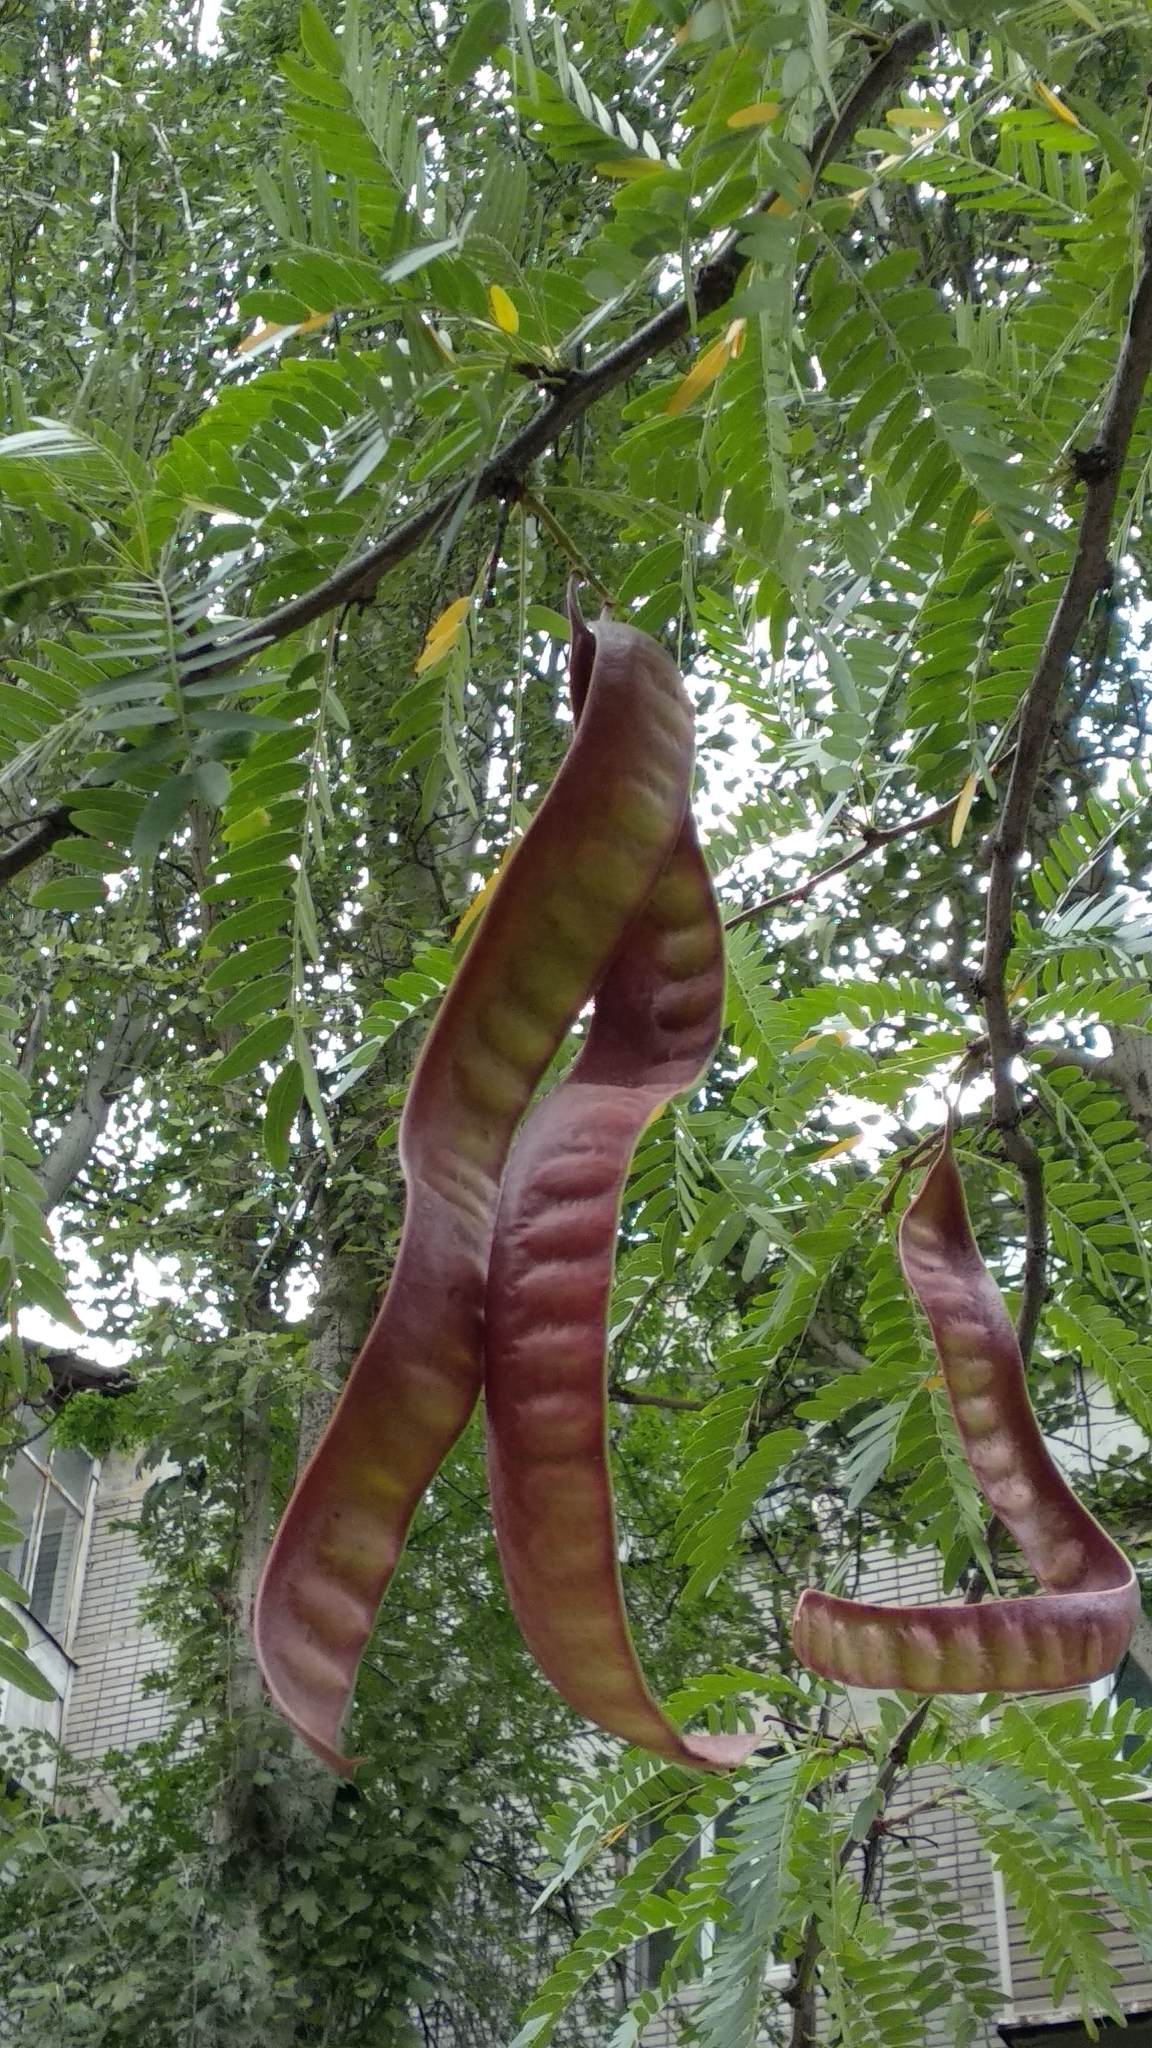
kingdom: Plantae
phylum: Tracheophyta
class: Magnoliopsida
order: Fabales
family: Fabaceae
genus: Gleditsia
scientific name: Gleditsia triacanthos
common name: Common honeylocust
